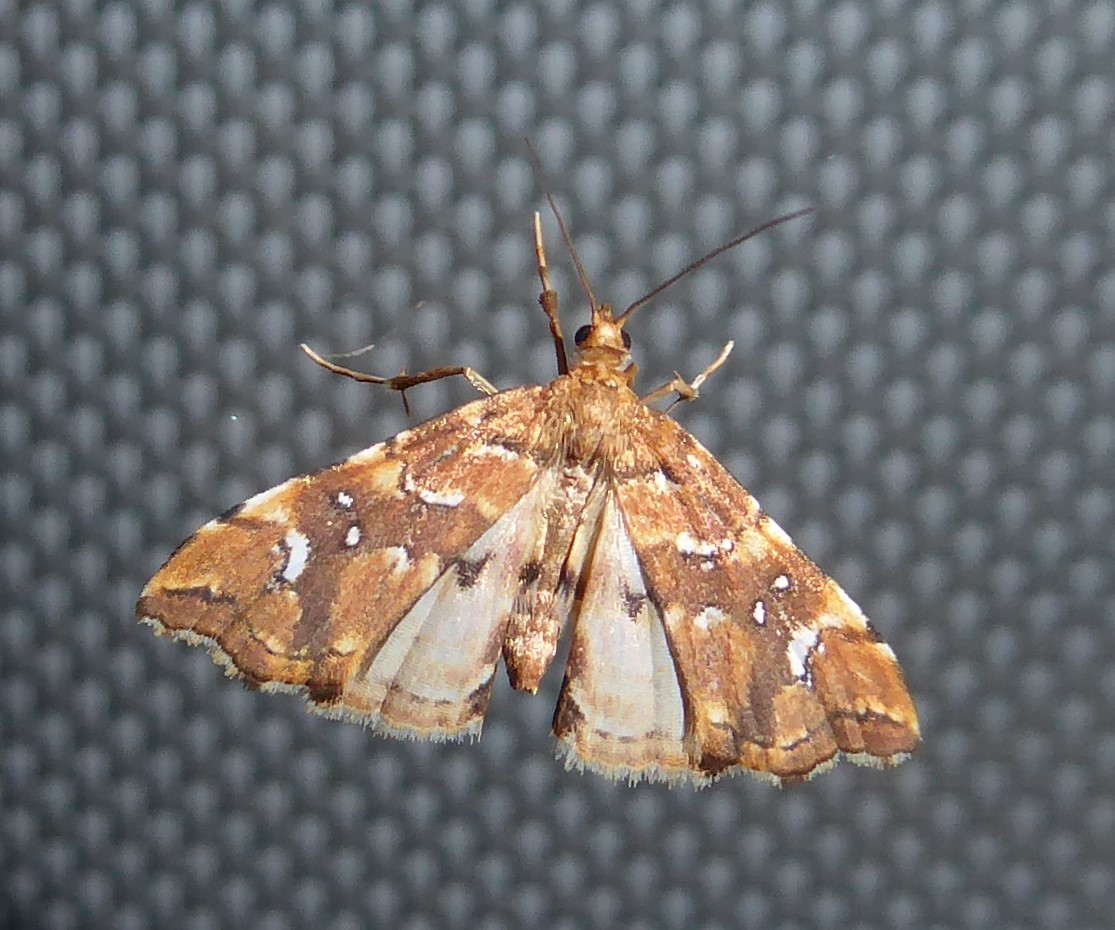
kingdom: Animalia
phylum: Arthropoda
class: Insecta
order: Lepidoptera
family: Pyralidae
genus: Musotima
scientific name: Musotima nitidalis
